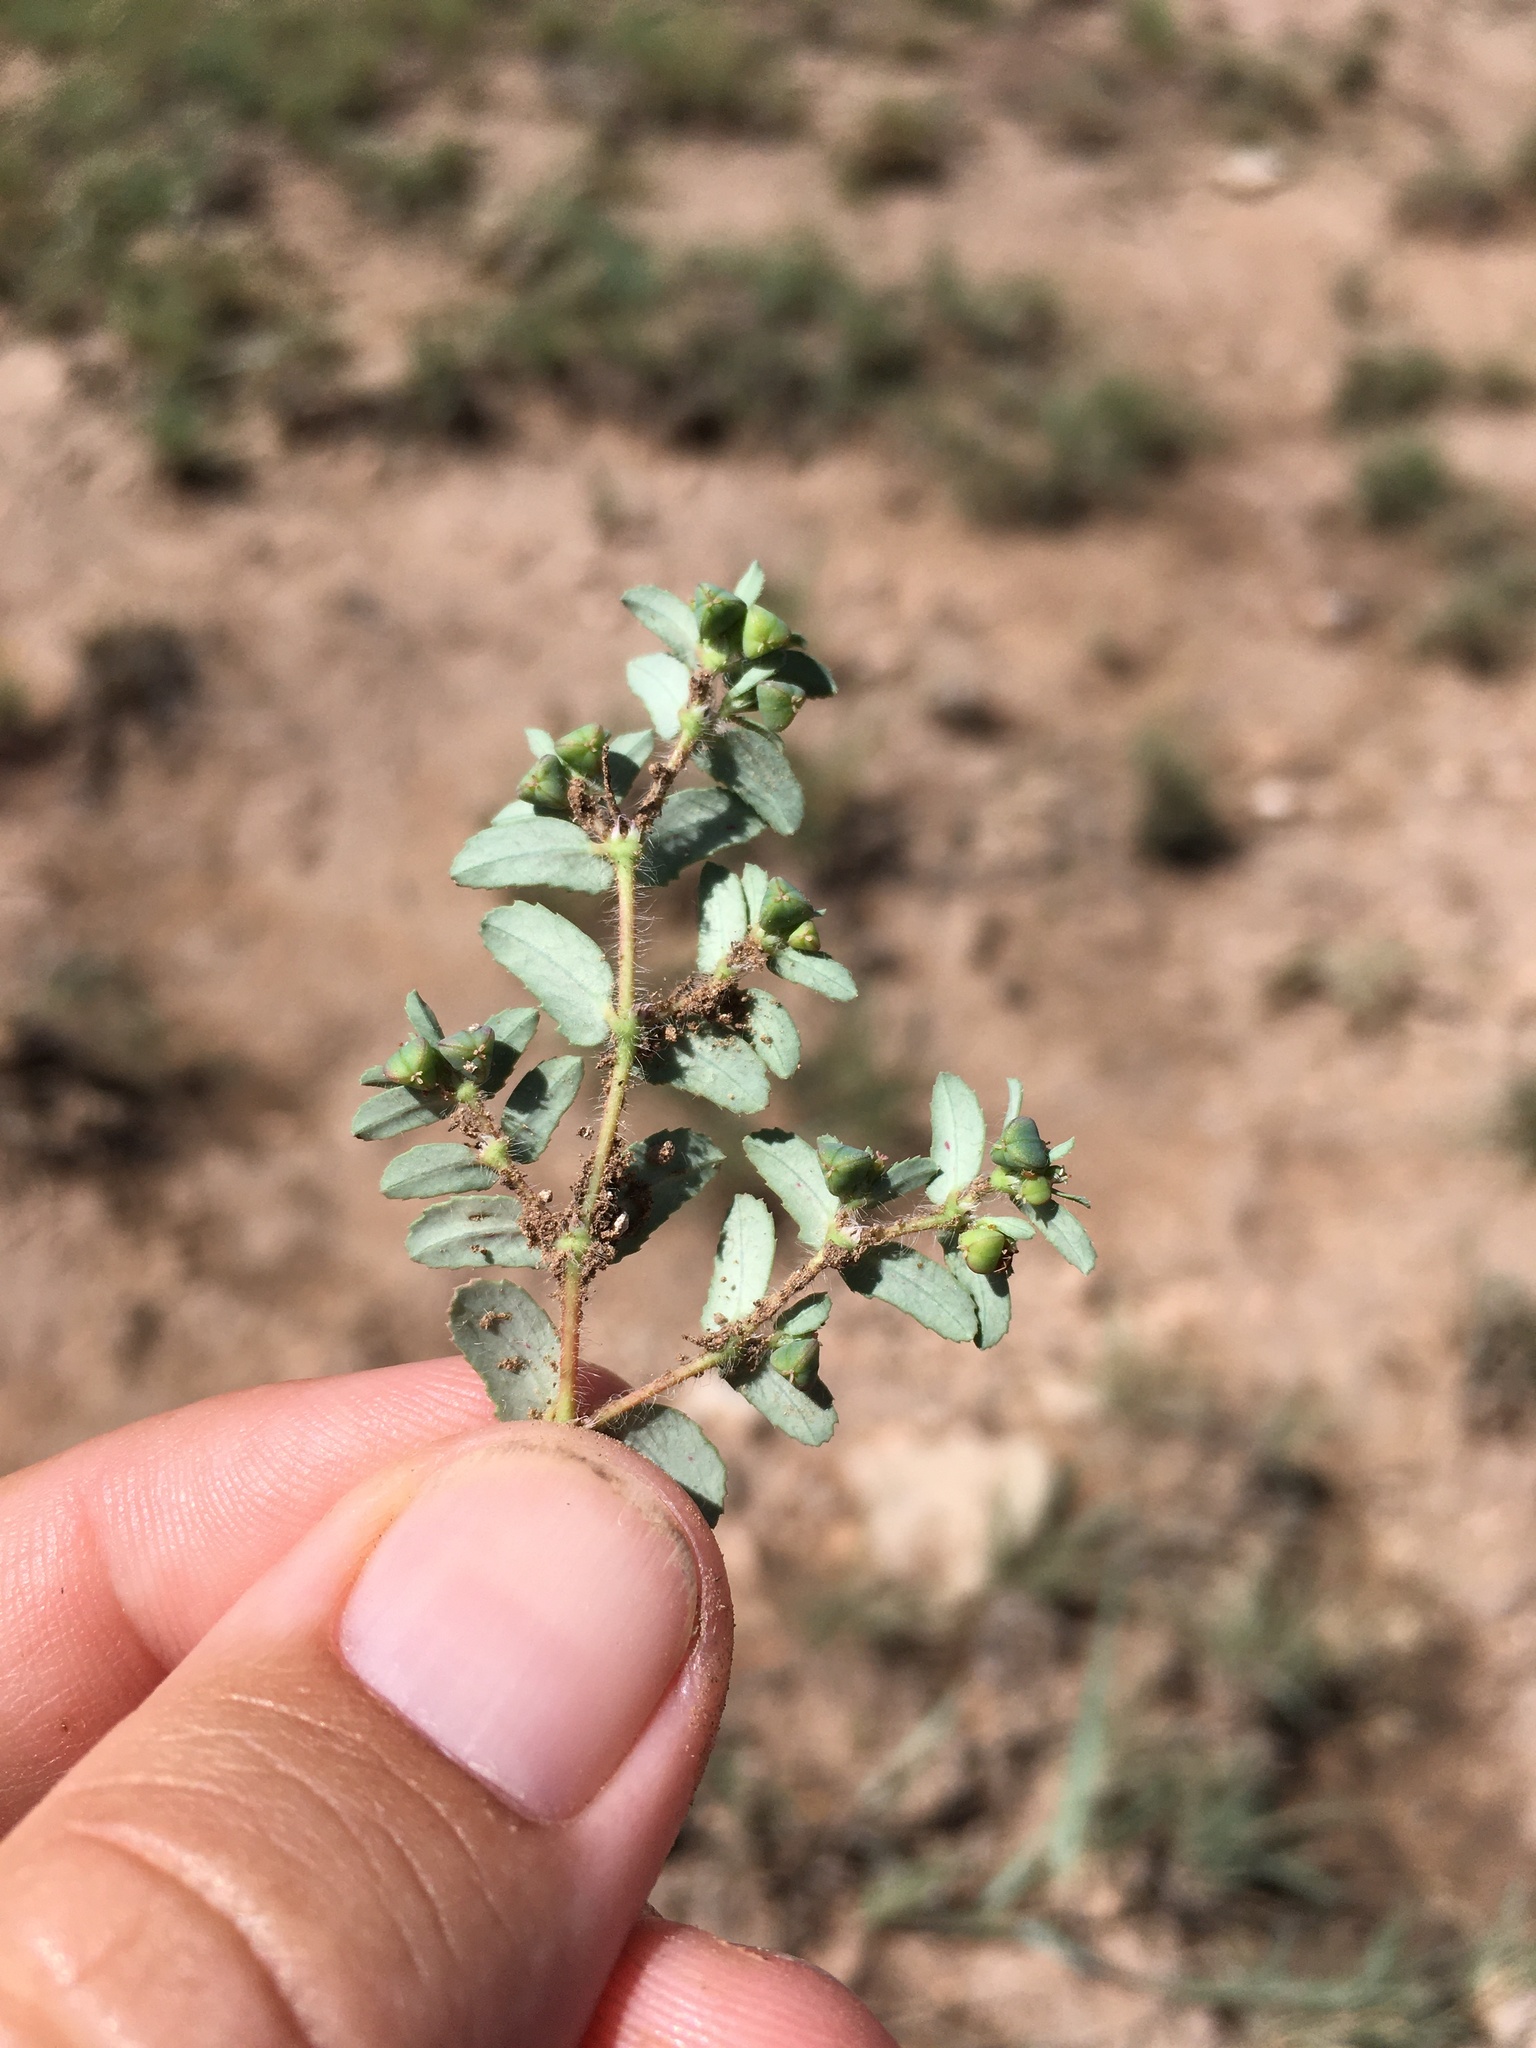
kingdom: Plantae
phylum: Tracheophyta
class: Magnoliopsida
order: Malpighiales
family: Euphorbiaceae
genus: Euphorbia
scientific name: Euphorbia serrula
